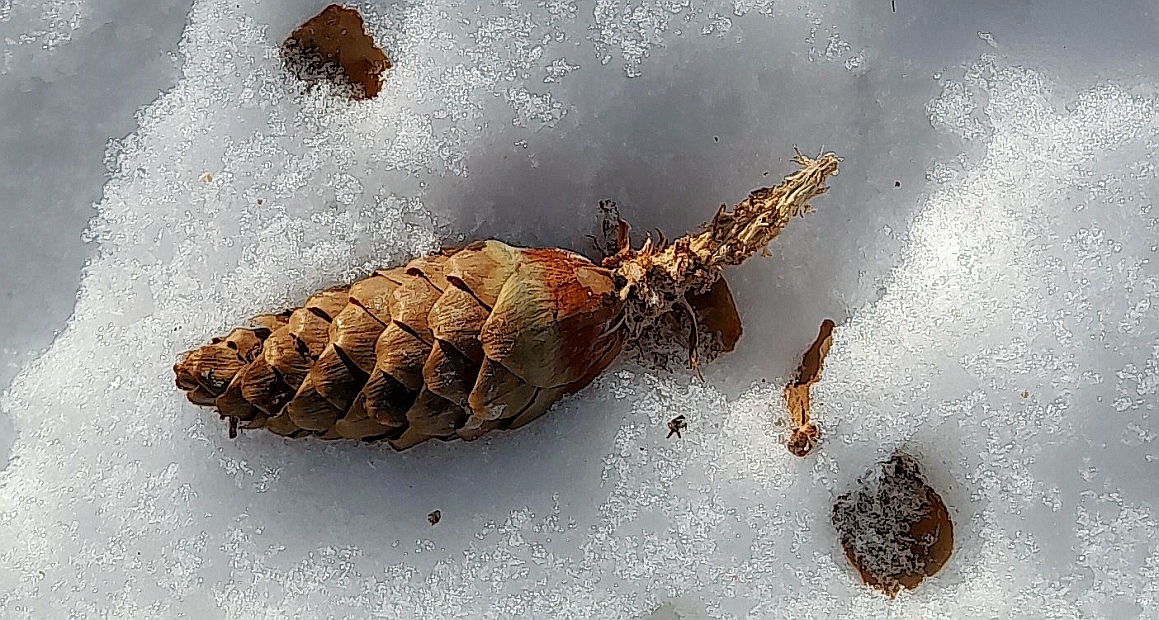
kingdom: Animalia
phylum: Chordata
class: Mammalia
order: Rodentia
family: Sciuridae
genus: Sciurus
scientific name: Sciurus vulgaris
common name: Eurasian red squirrel
